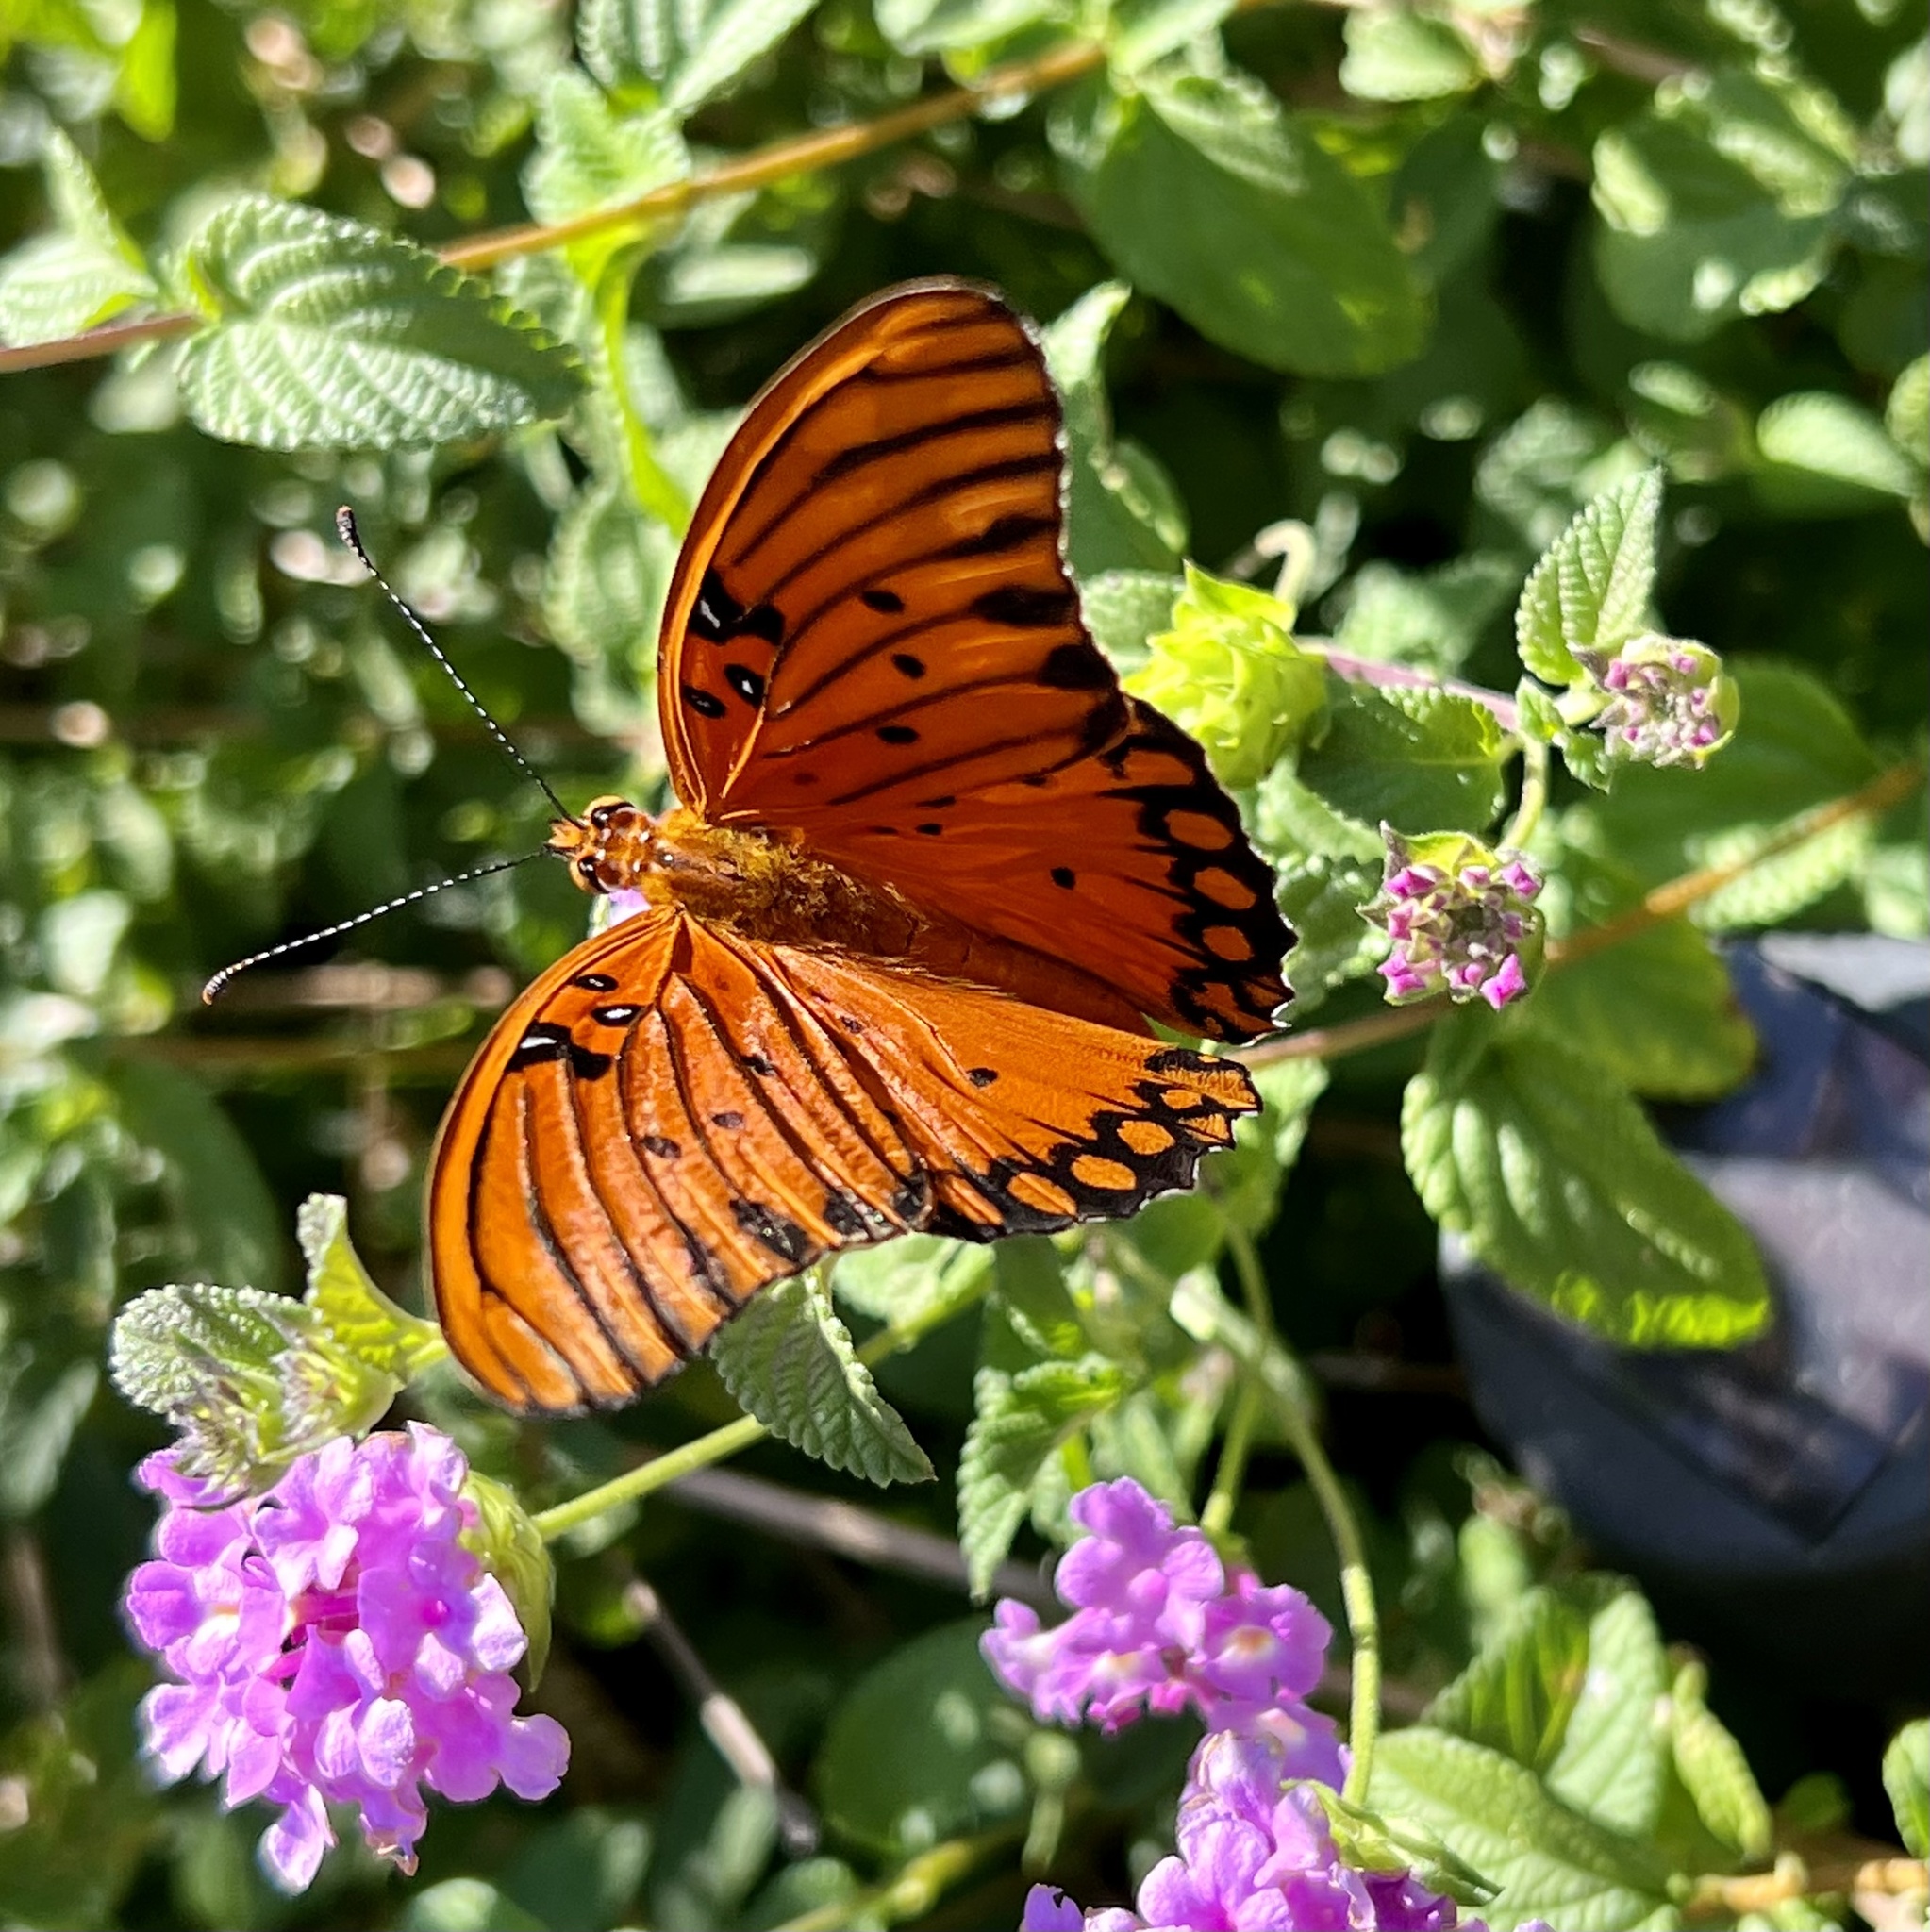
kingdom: Animalia
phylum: Arthropoda
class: Insecta
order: Lepidoptera
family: Nymphalidae
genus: Dione
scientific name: Dione vanillae
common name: Gulf fritillary
